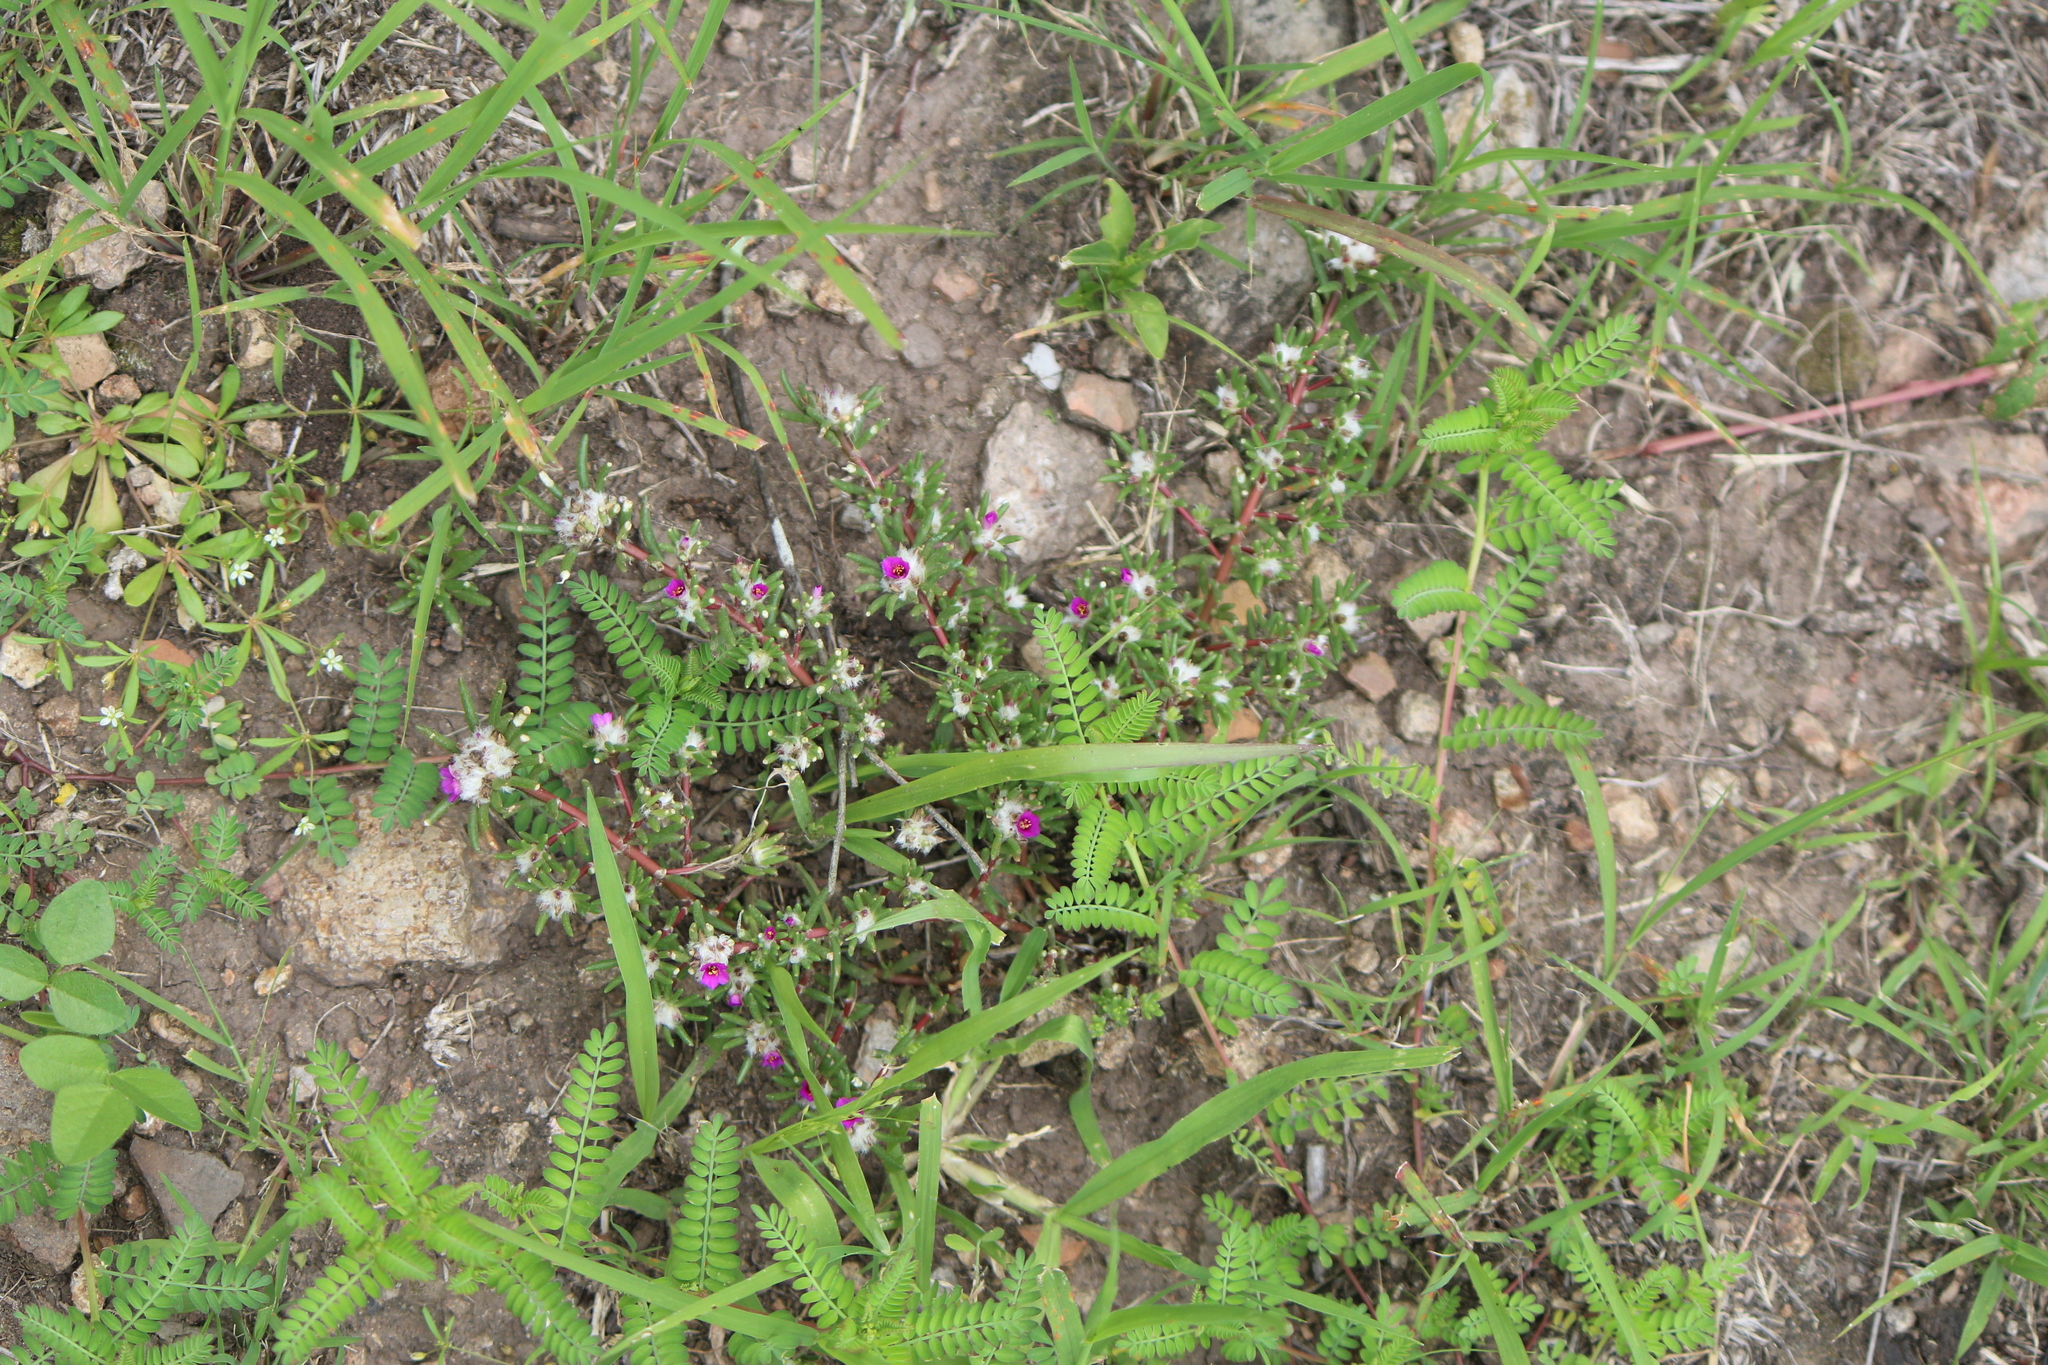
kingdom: Plantae
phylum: Tracheophyta
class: Magnoliopsida
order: Caryophyllales
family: Portulacaceae
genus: Portulaca
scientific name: Portulaca pilosa
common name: Kiss me quick
